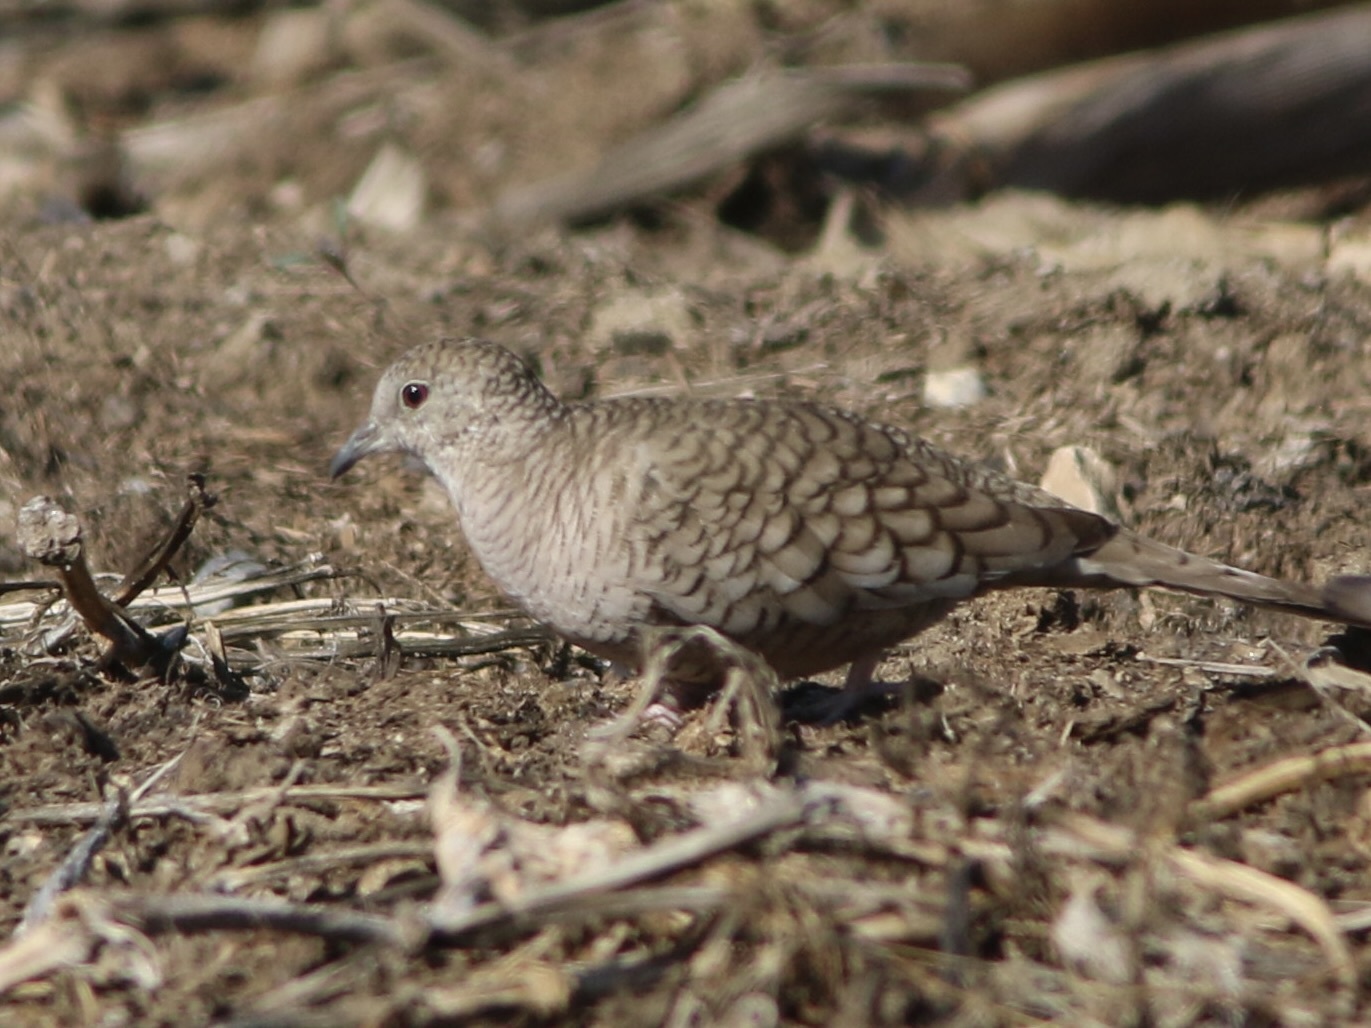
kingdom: Animalia
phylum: Chordata
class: Aves
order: Columbiformes
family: Columbidae
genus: Columbina
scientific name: Columbina inca
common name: Inca dove
